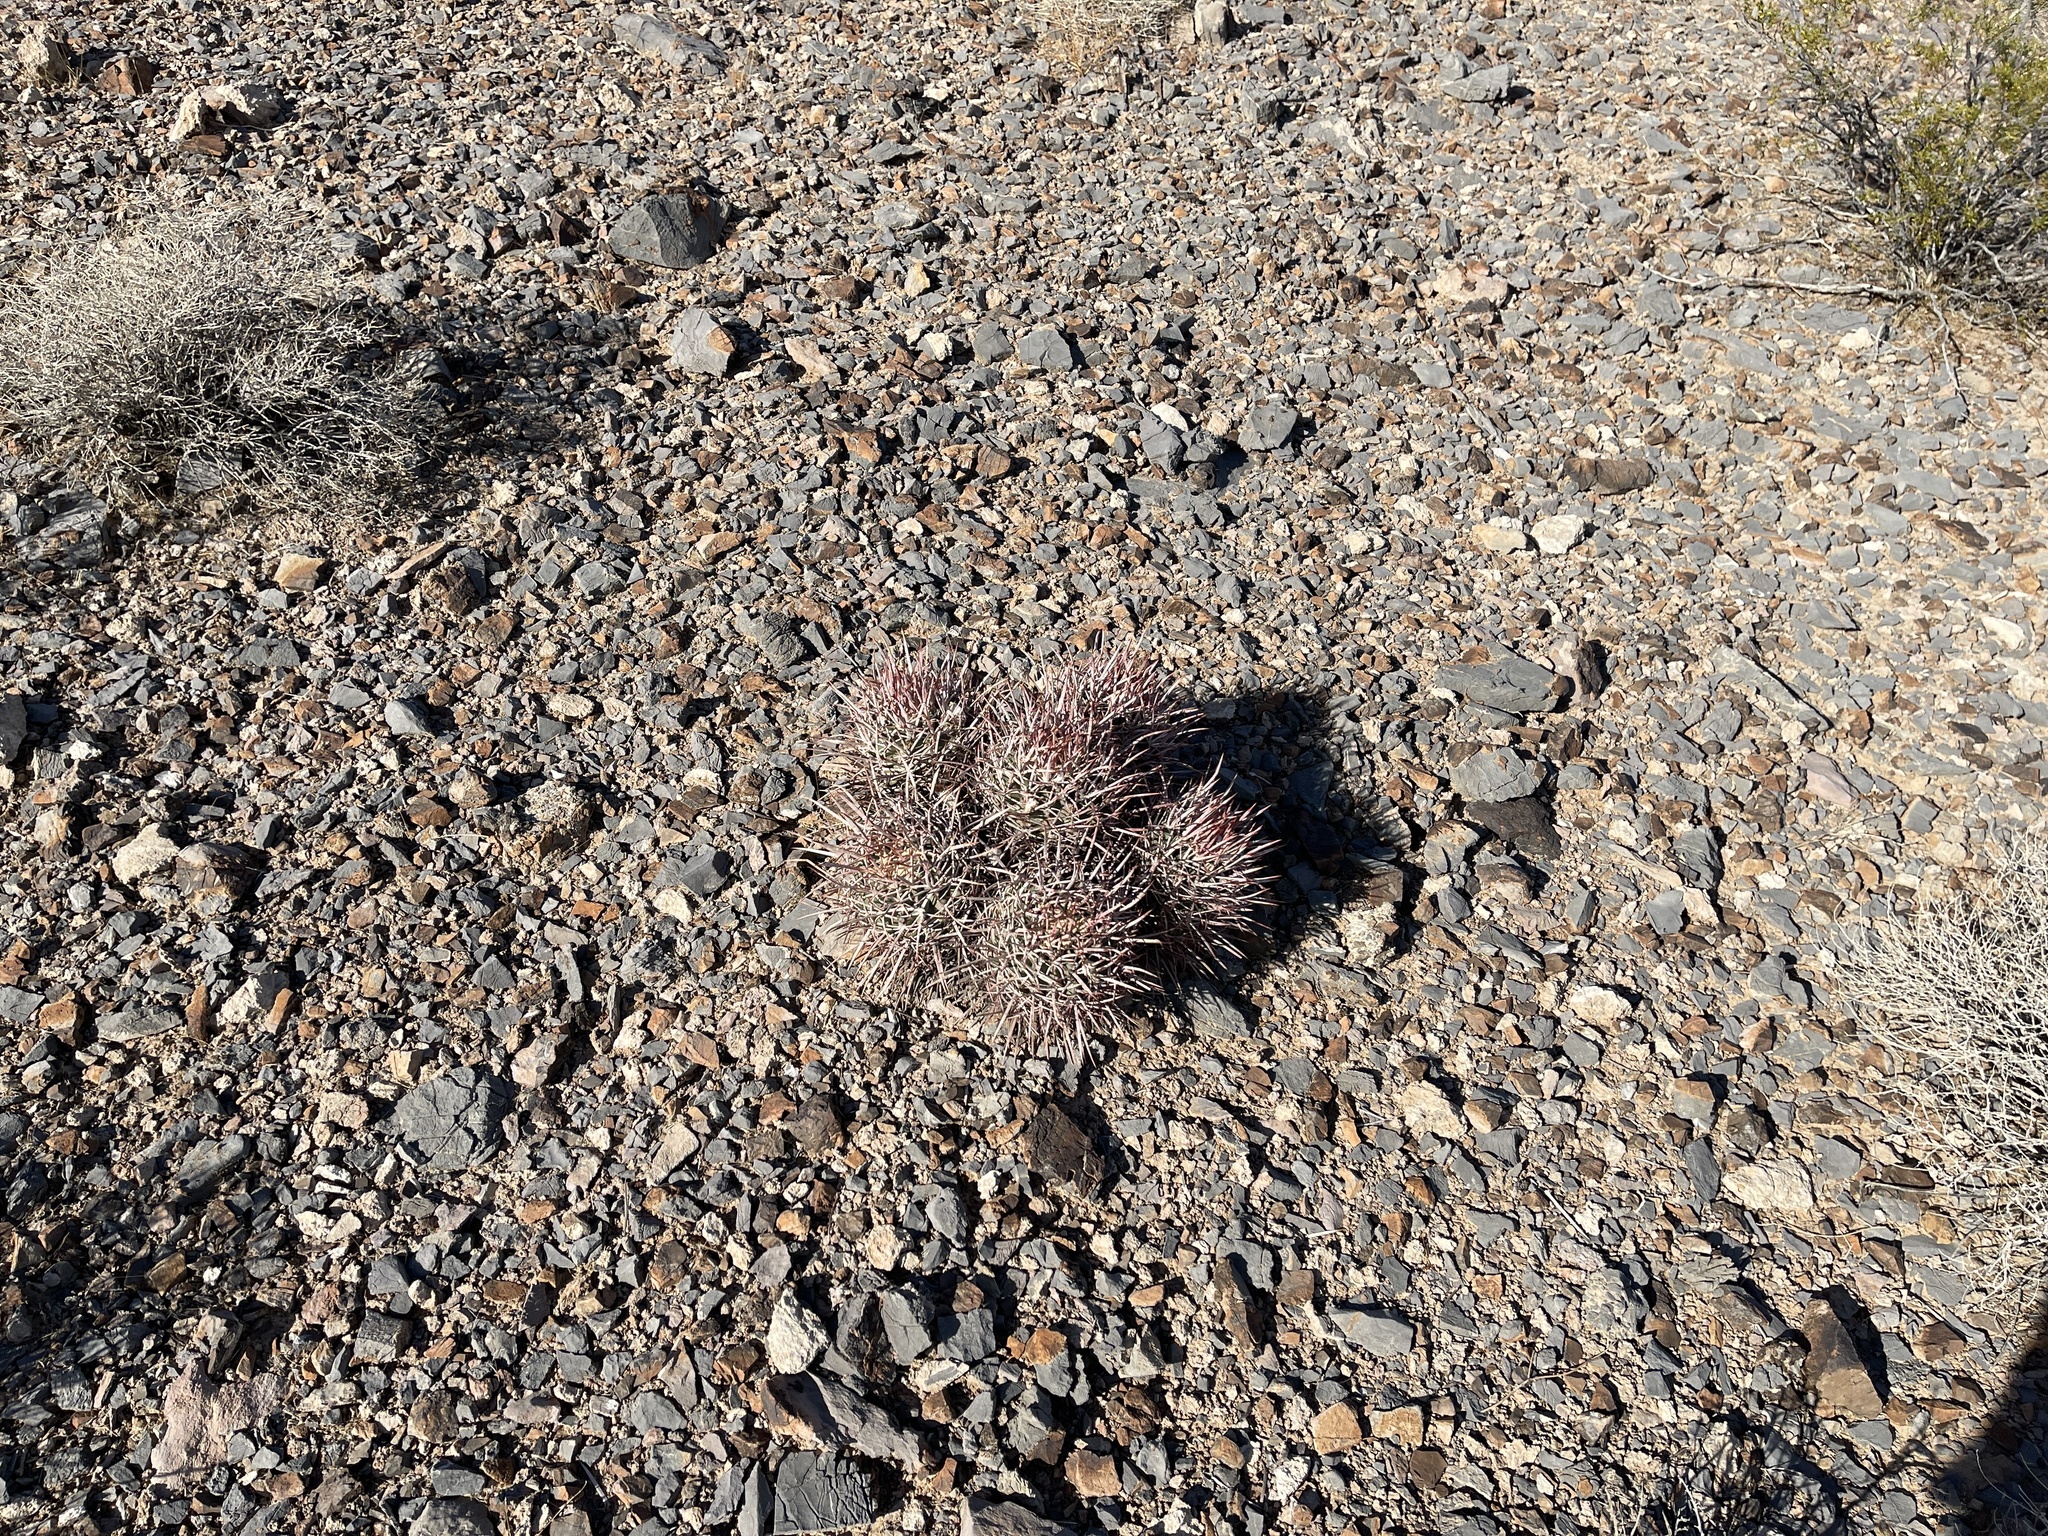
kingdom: Plantae
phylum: Tracheophyta
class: Magnoliopsida
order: Caryophyllales
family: Cactaceae
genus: Echinocactus
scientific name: Echinocactus polycephalus
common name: Cottontop cactus
